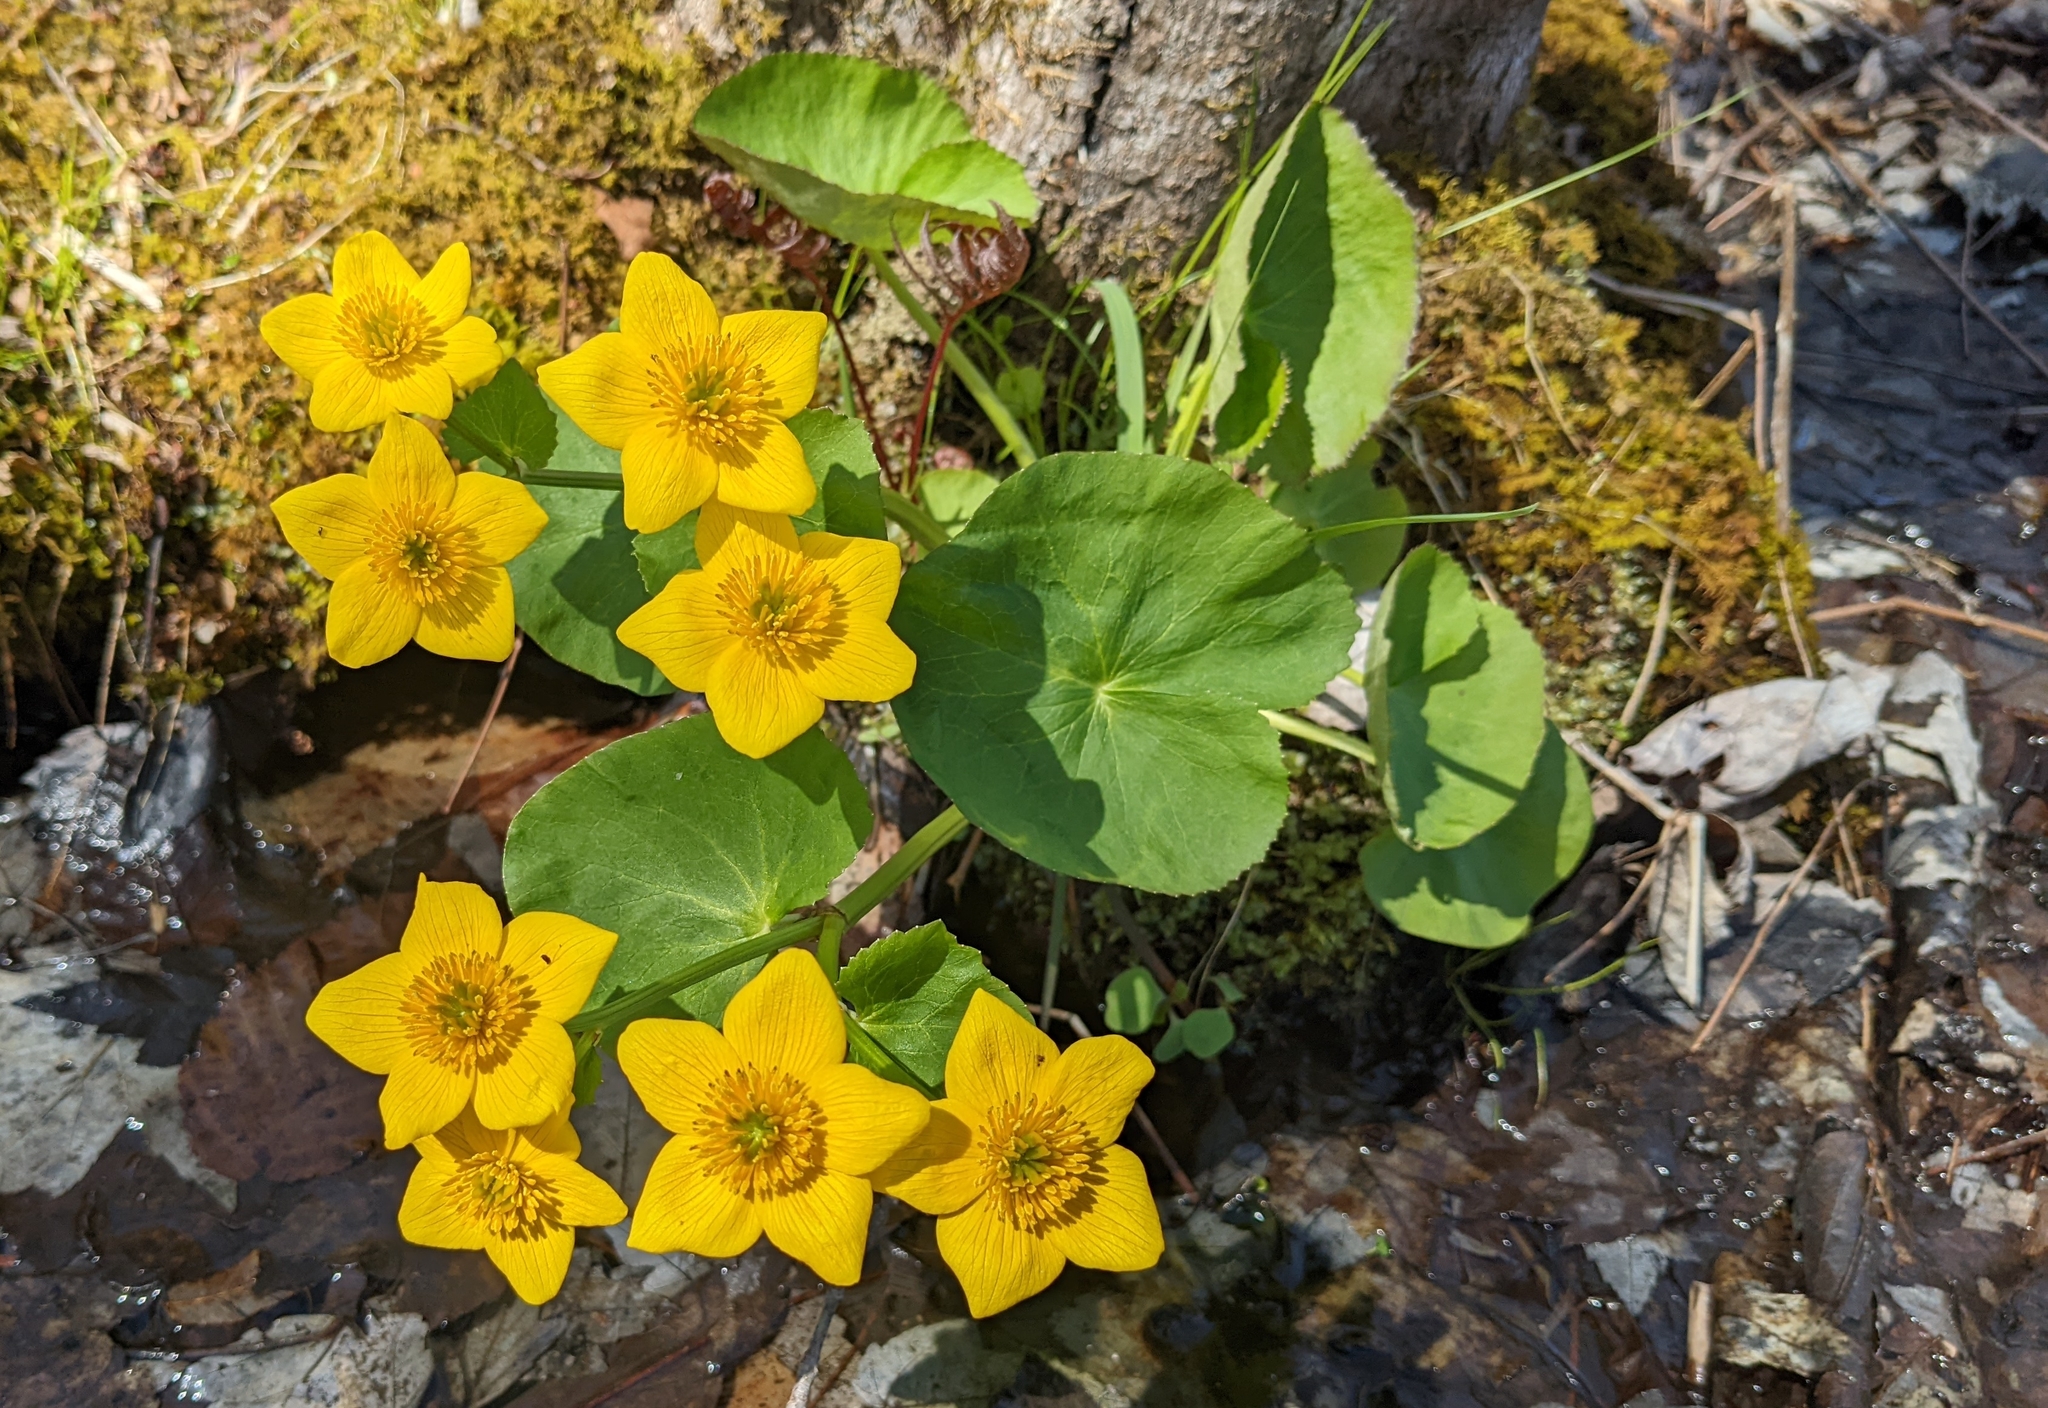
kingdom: Plantae
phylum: Tracheophyta
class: Magnoliopsida
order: Ranunculales
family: Ranunculaceae
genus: Caltha
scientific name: Caltha palustris
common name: Marsh marigold
